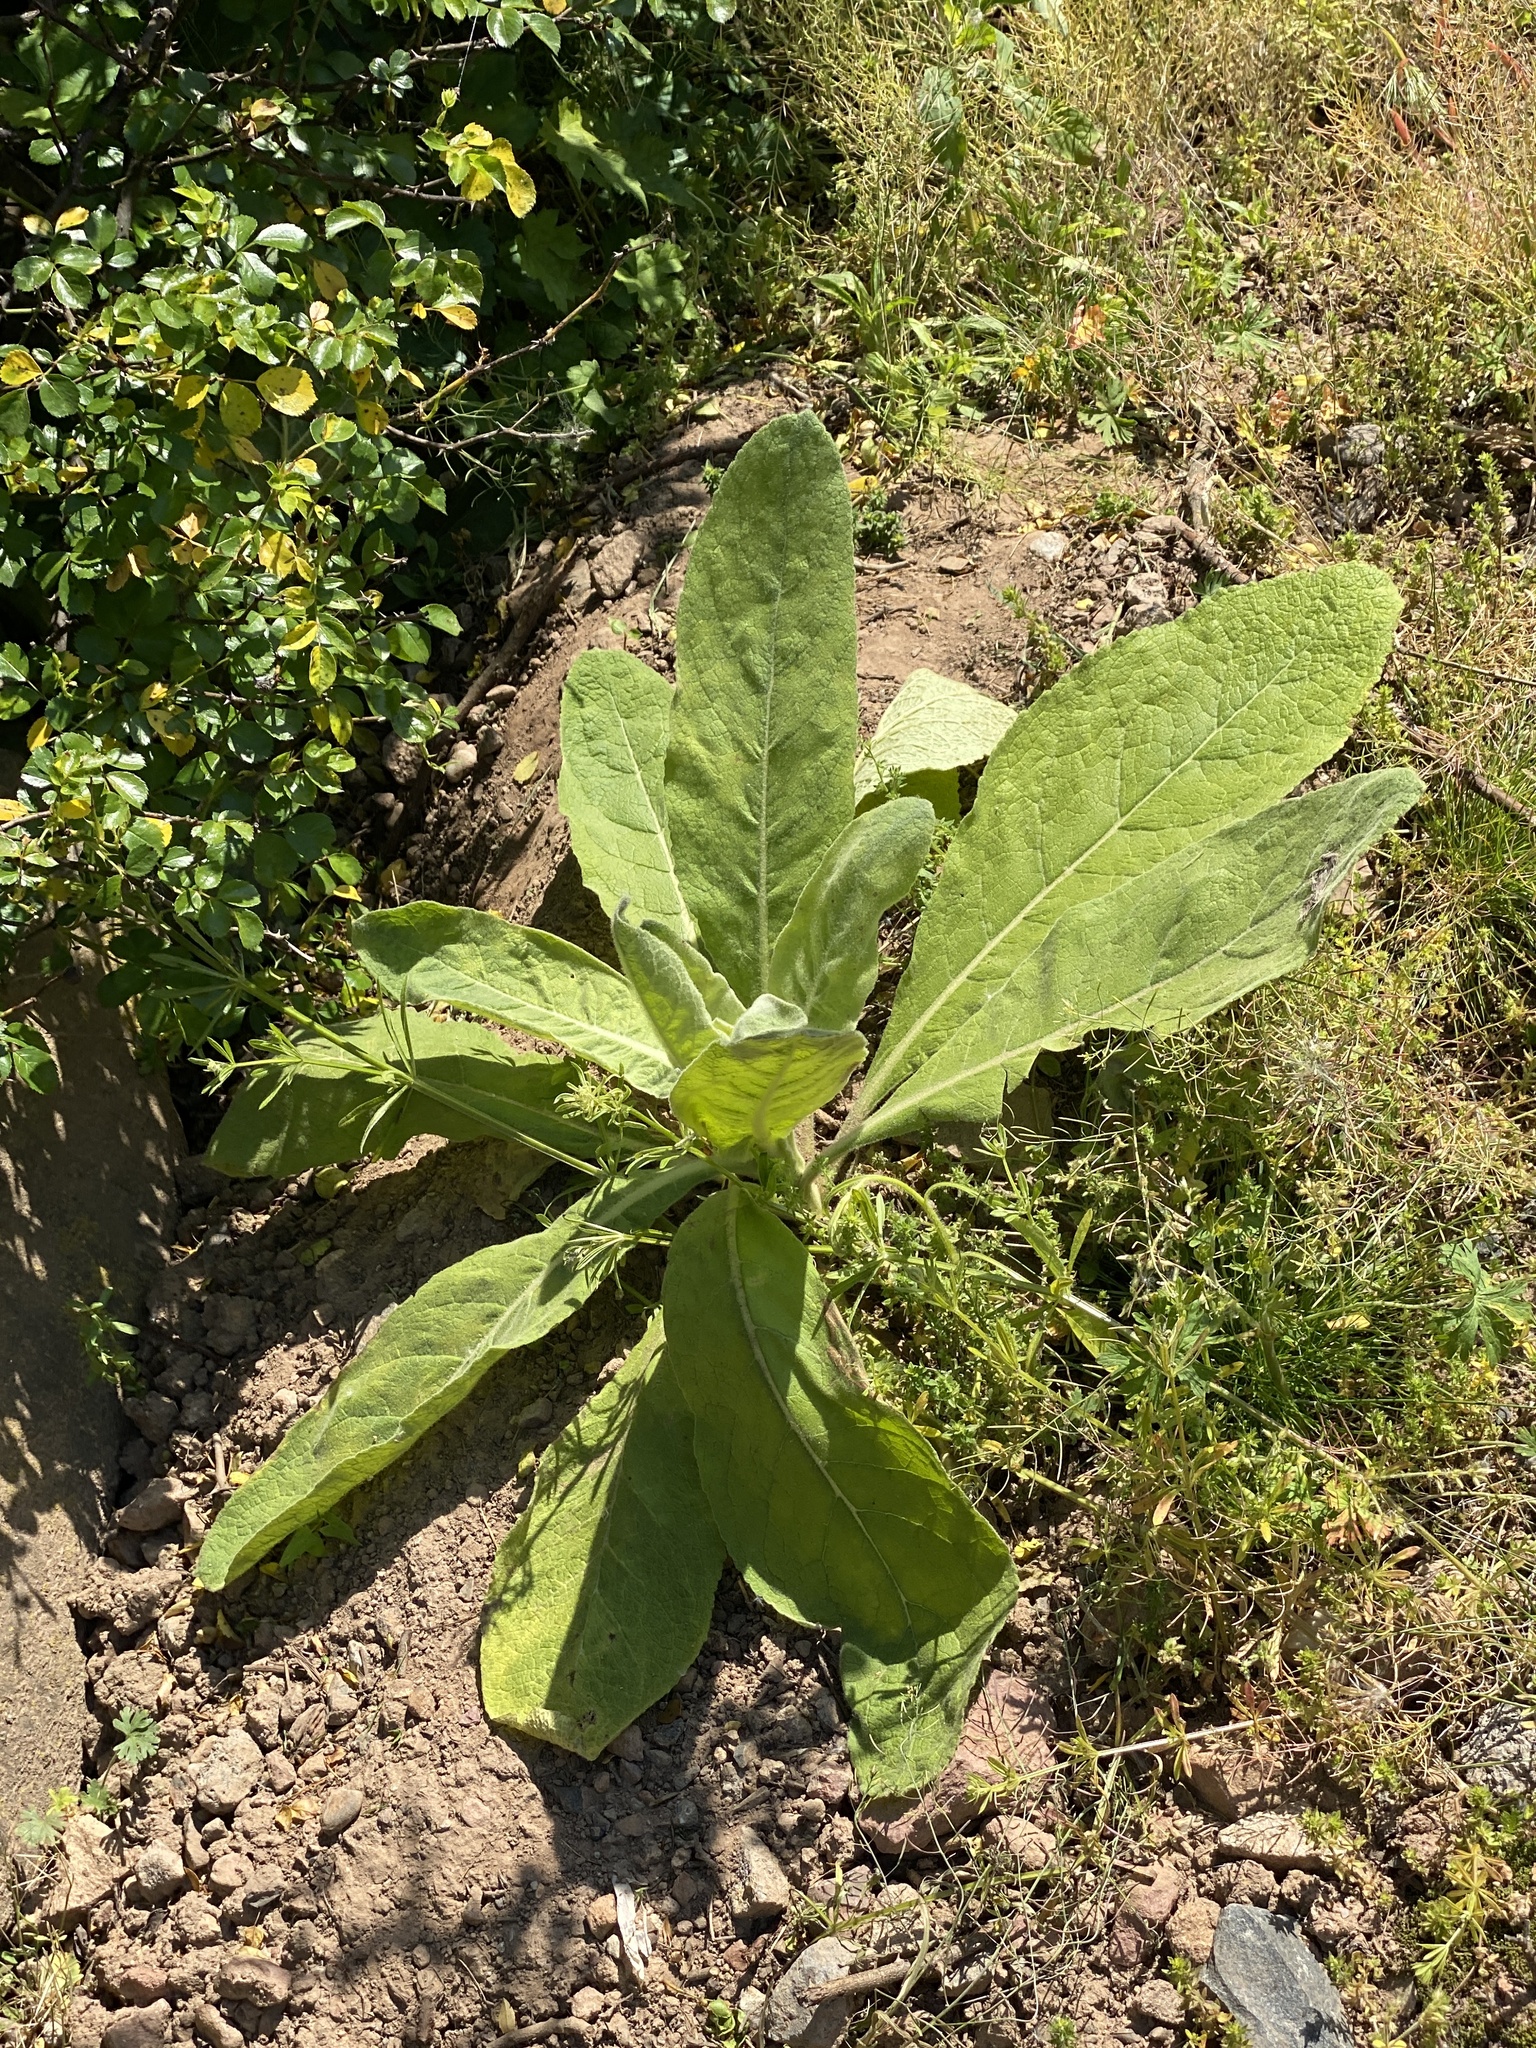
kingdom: Plantae
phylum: Tracheophyta
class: Magnoliopsida
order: Lamiales
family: Scrophulariaceae
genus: Verbascum
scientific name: Verbascum thapsus
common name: Common mullein
